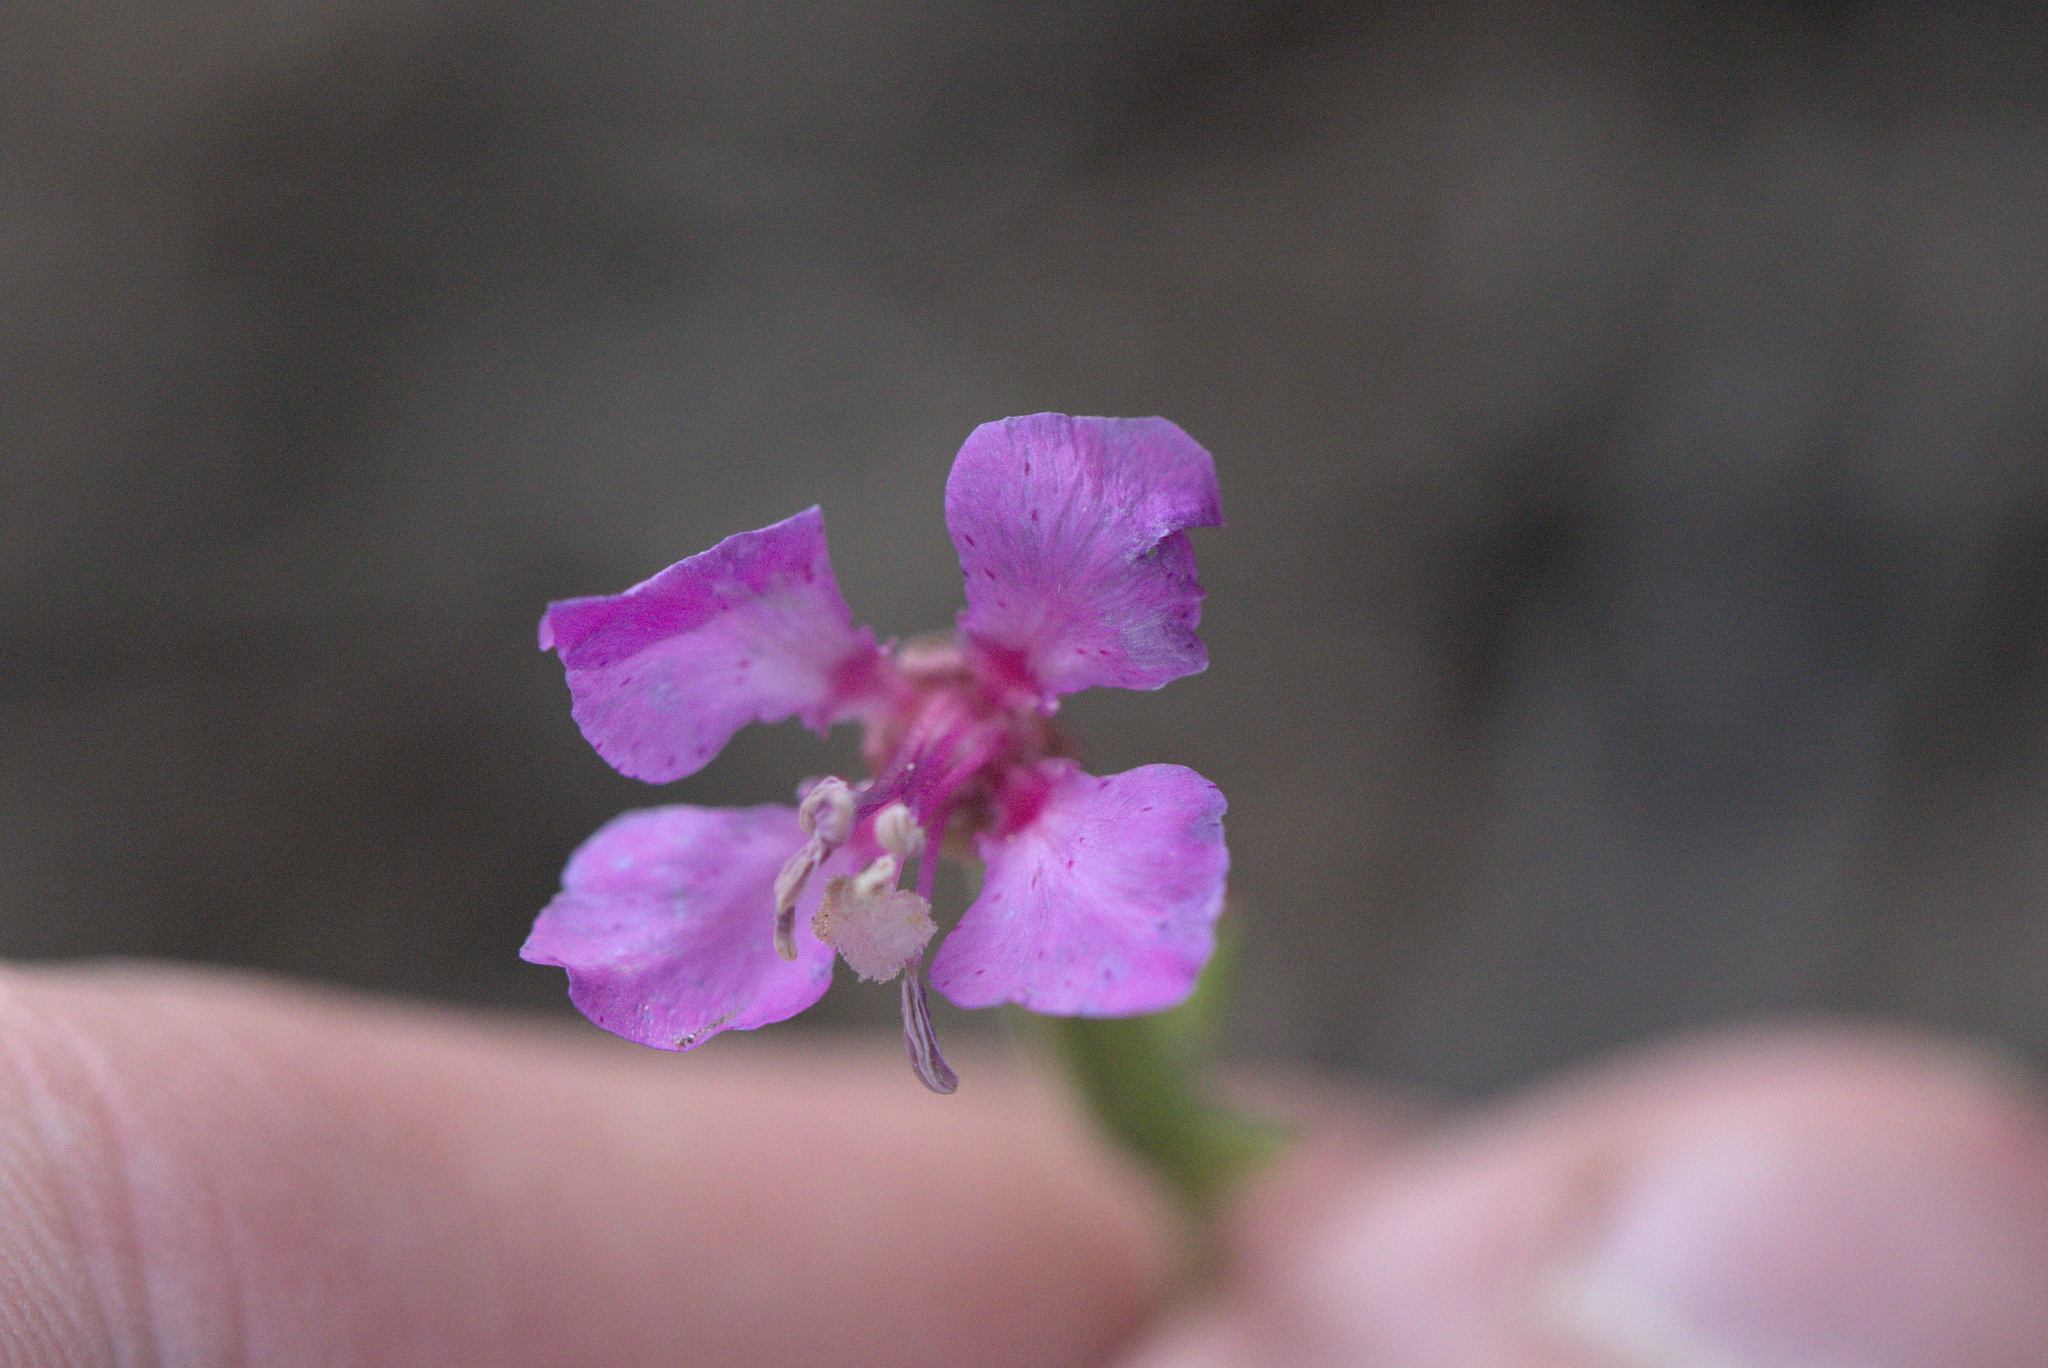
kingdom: Plantae
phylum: Tracheophyta
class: Magnoliopsida
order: Myrtales
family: Onagraceae
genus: Clarkia
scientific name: Clarkia rhomboidea
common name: Broadleaf clarkia
